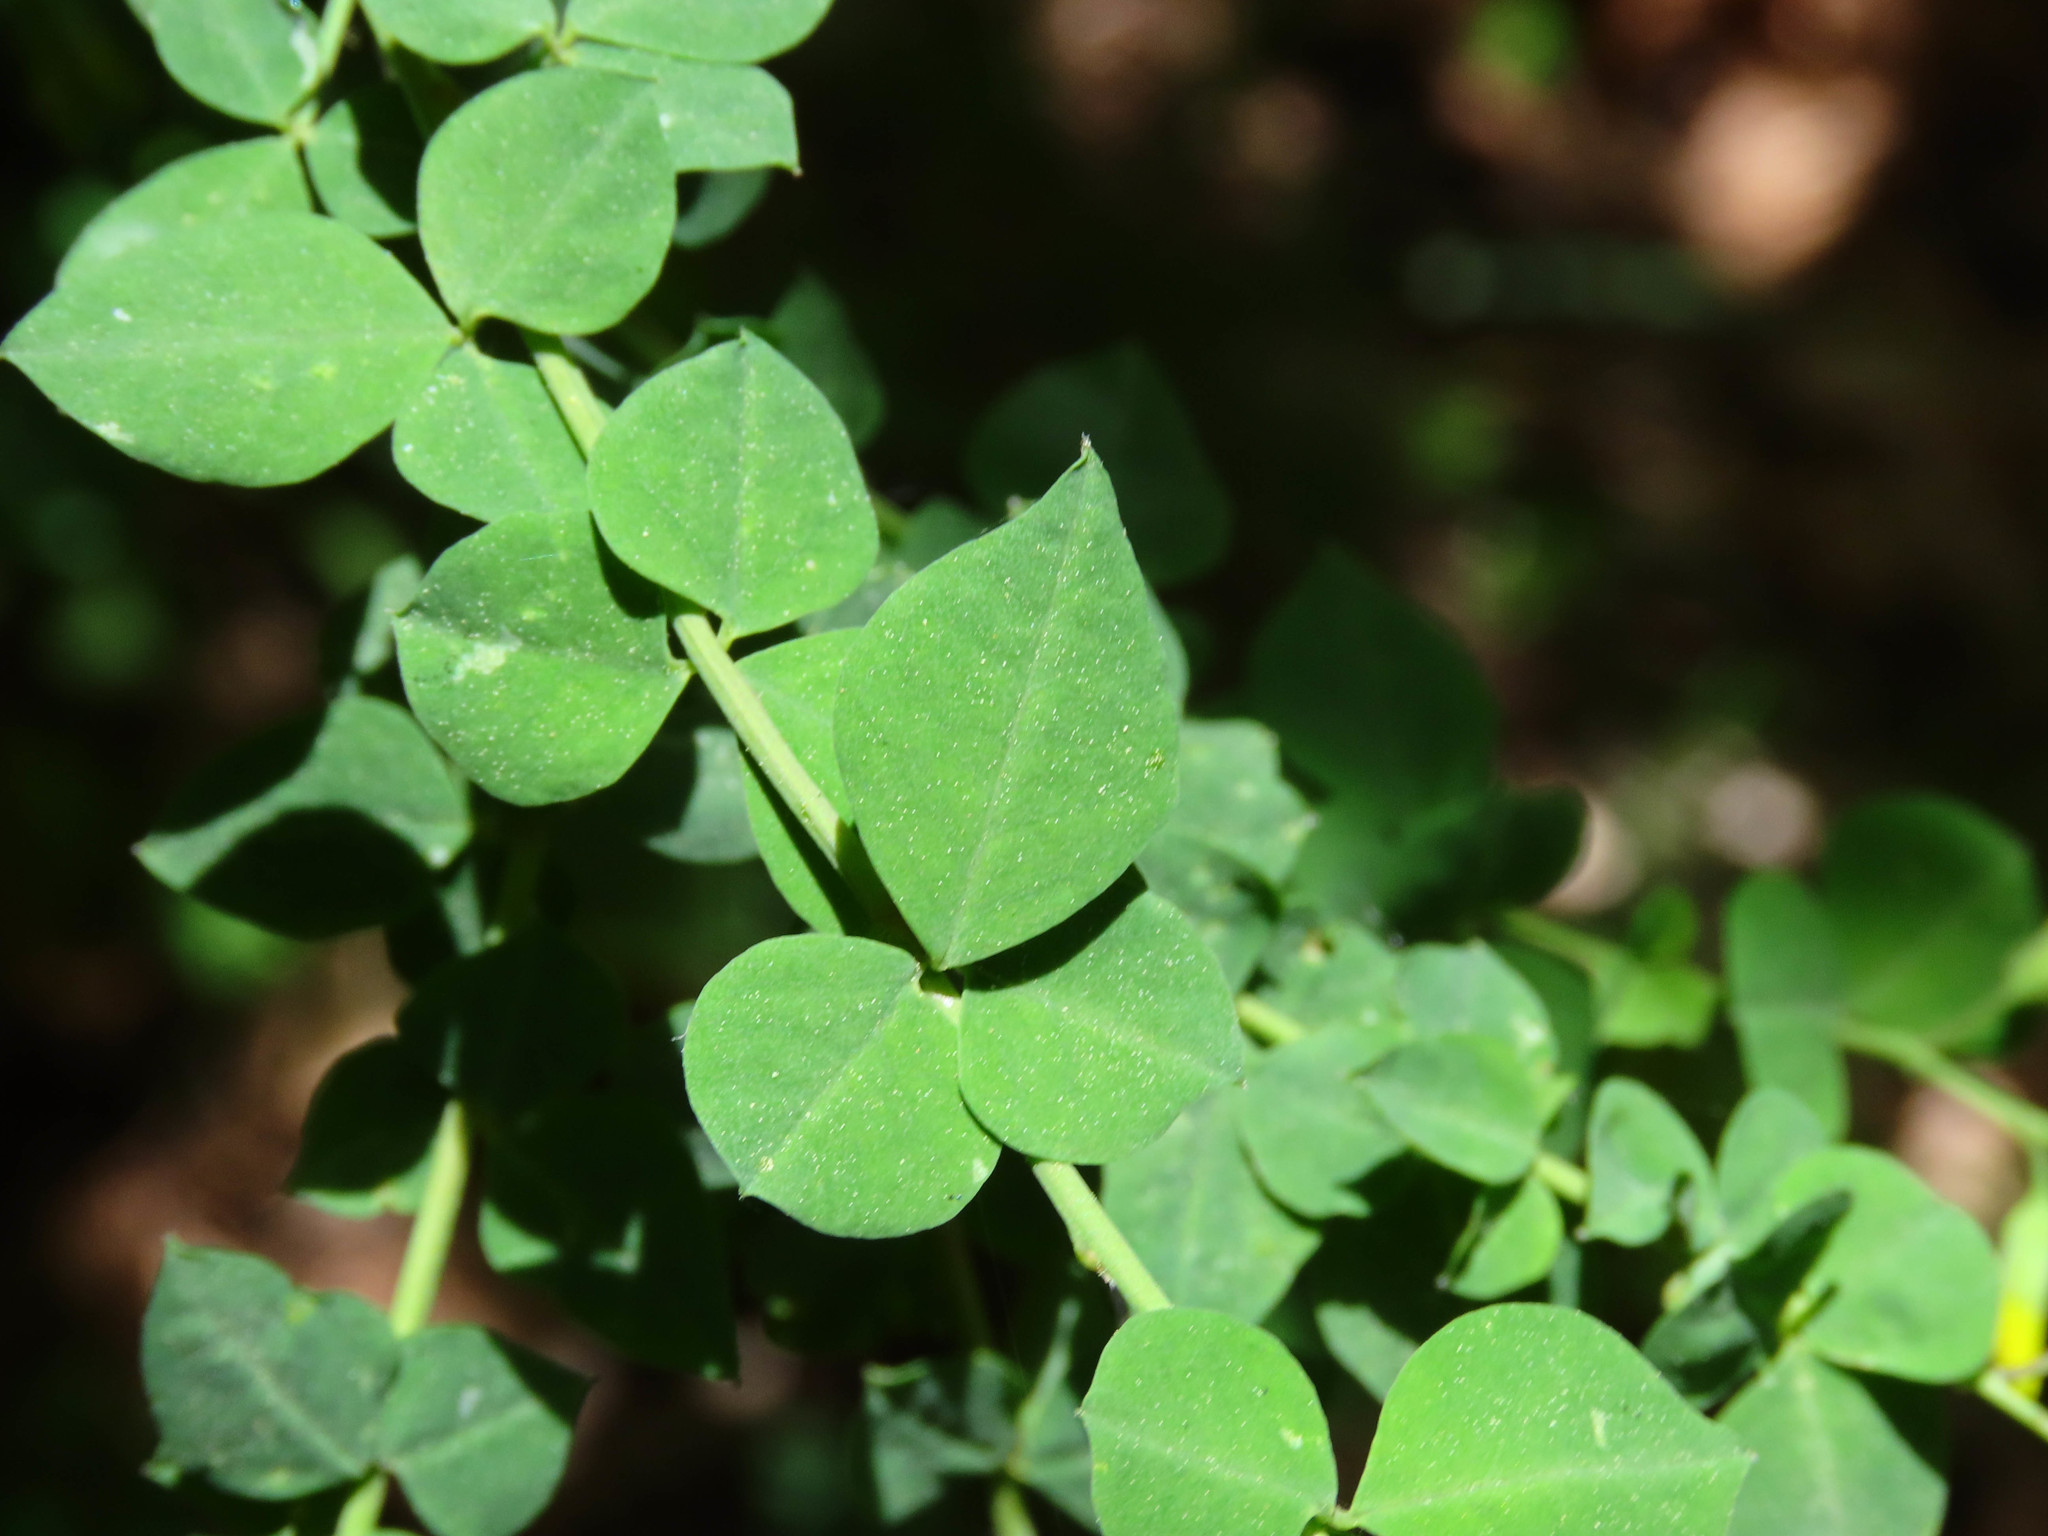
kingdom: Plantae
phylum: Tracheophyta
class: Magnoliopsida
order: Fabales
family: Fabaceae
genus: Cytisophyllum
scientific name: Cytisophyllum sessilifolium
